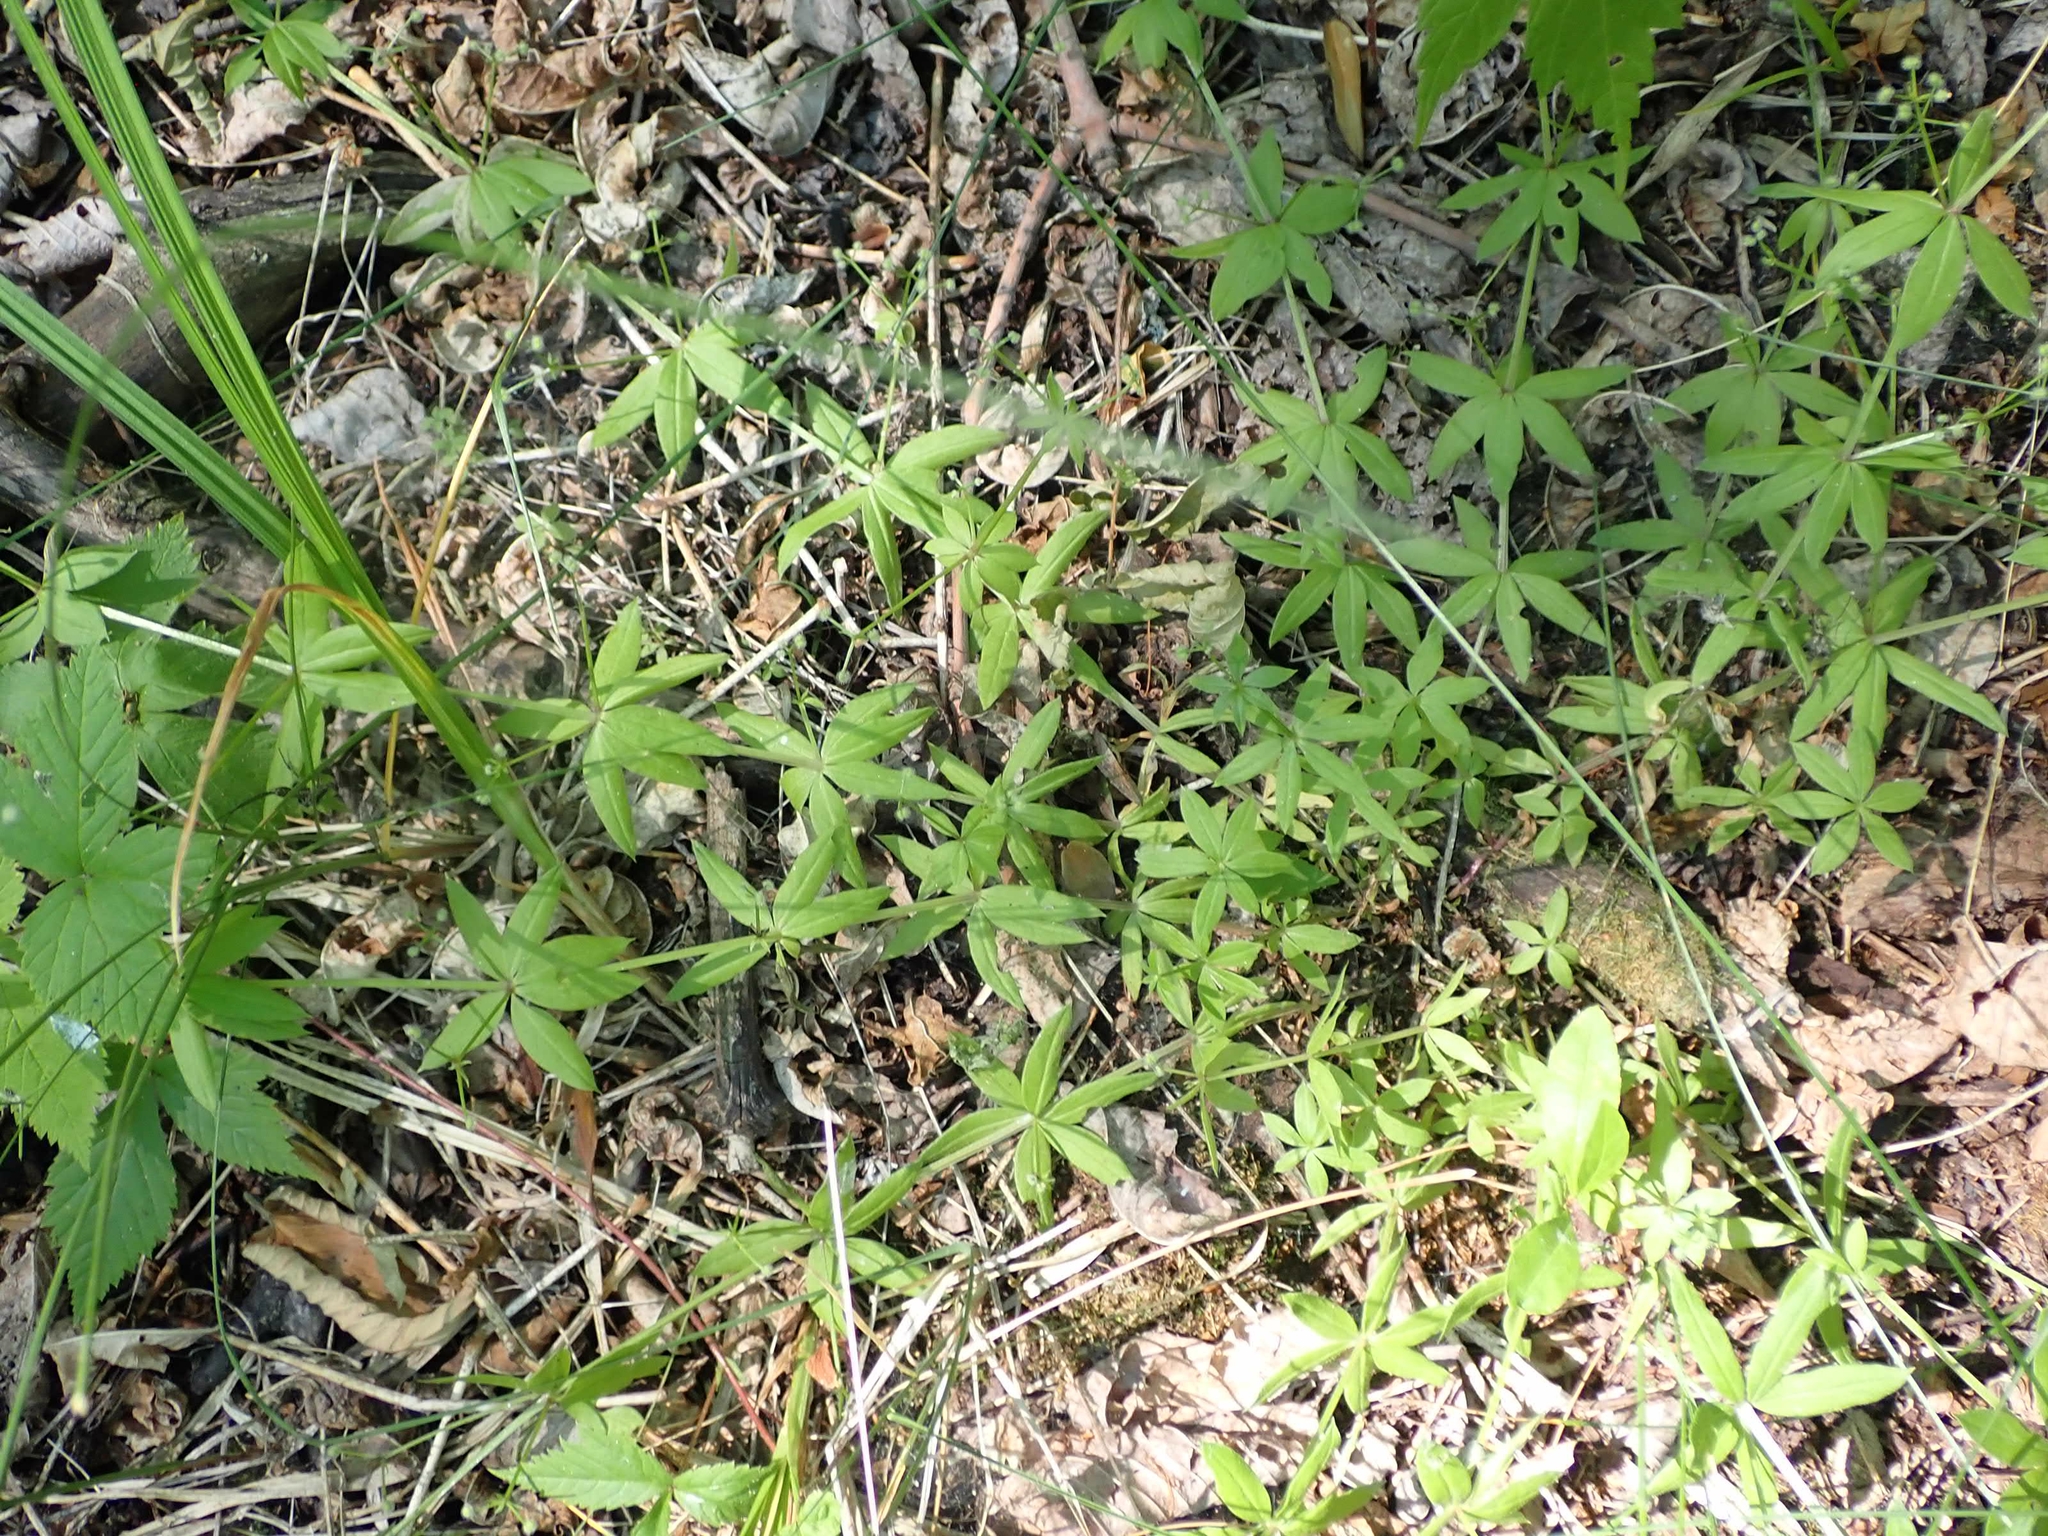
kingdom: Plantae
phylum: Tracheophyta
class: Magnoliopsida
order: Gentianales
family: Rubiaceae
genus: Galium
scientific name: Galium triflorum
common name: Fragrant bedstraw
